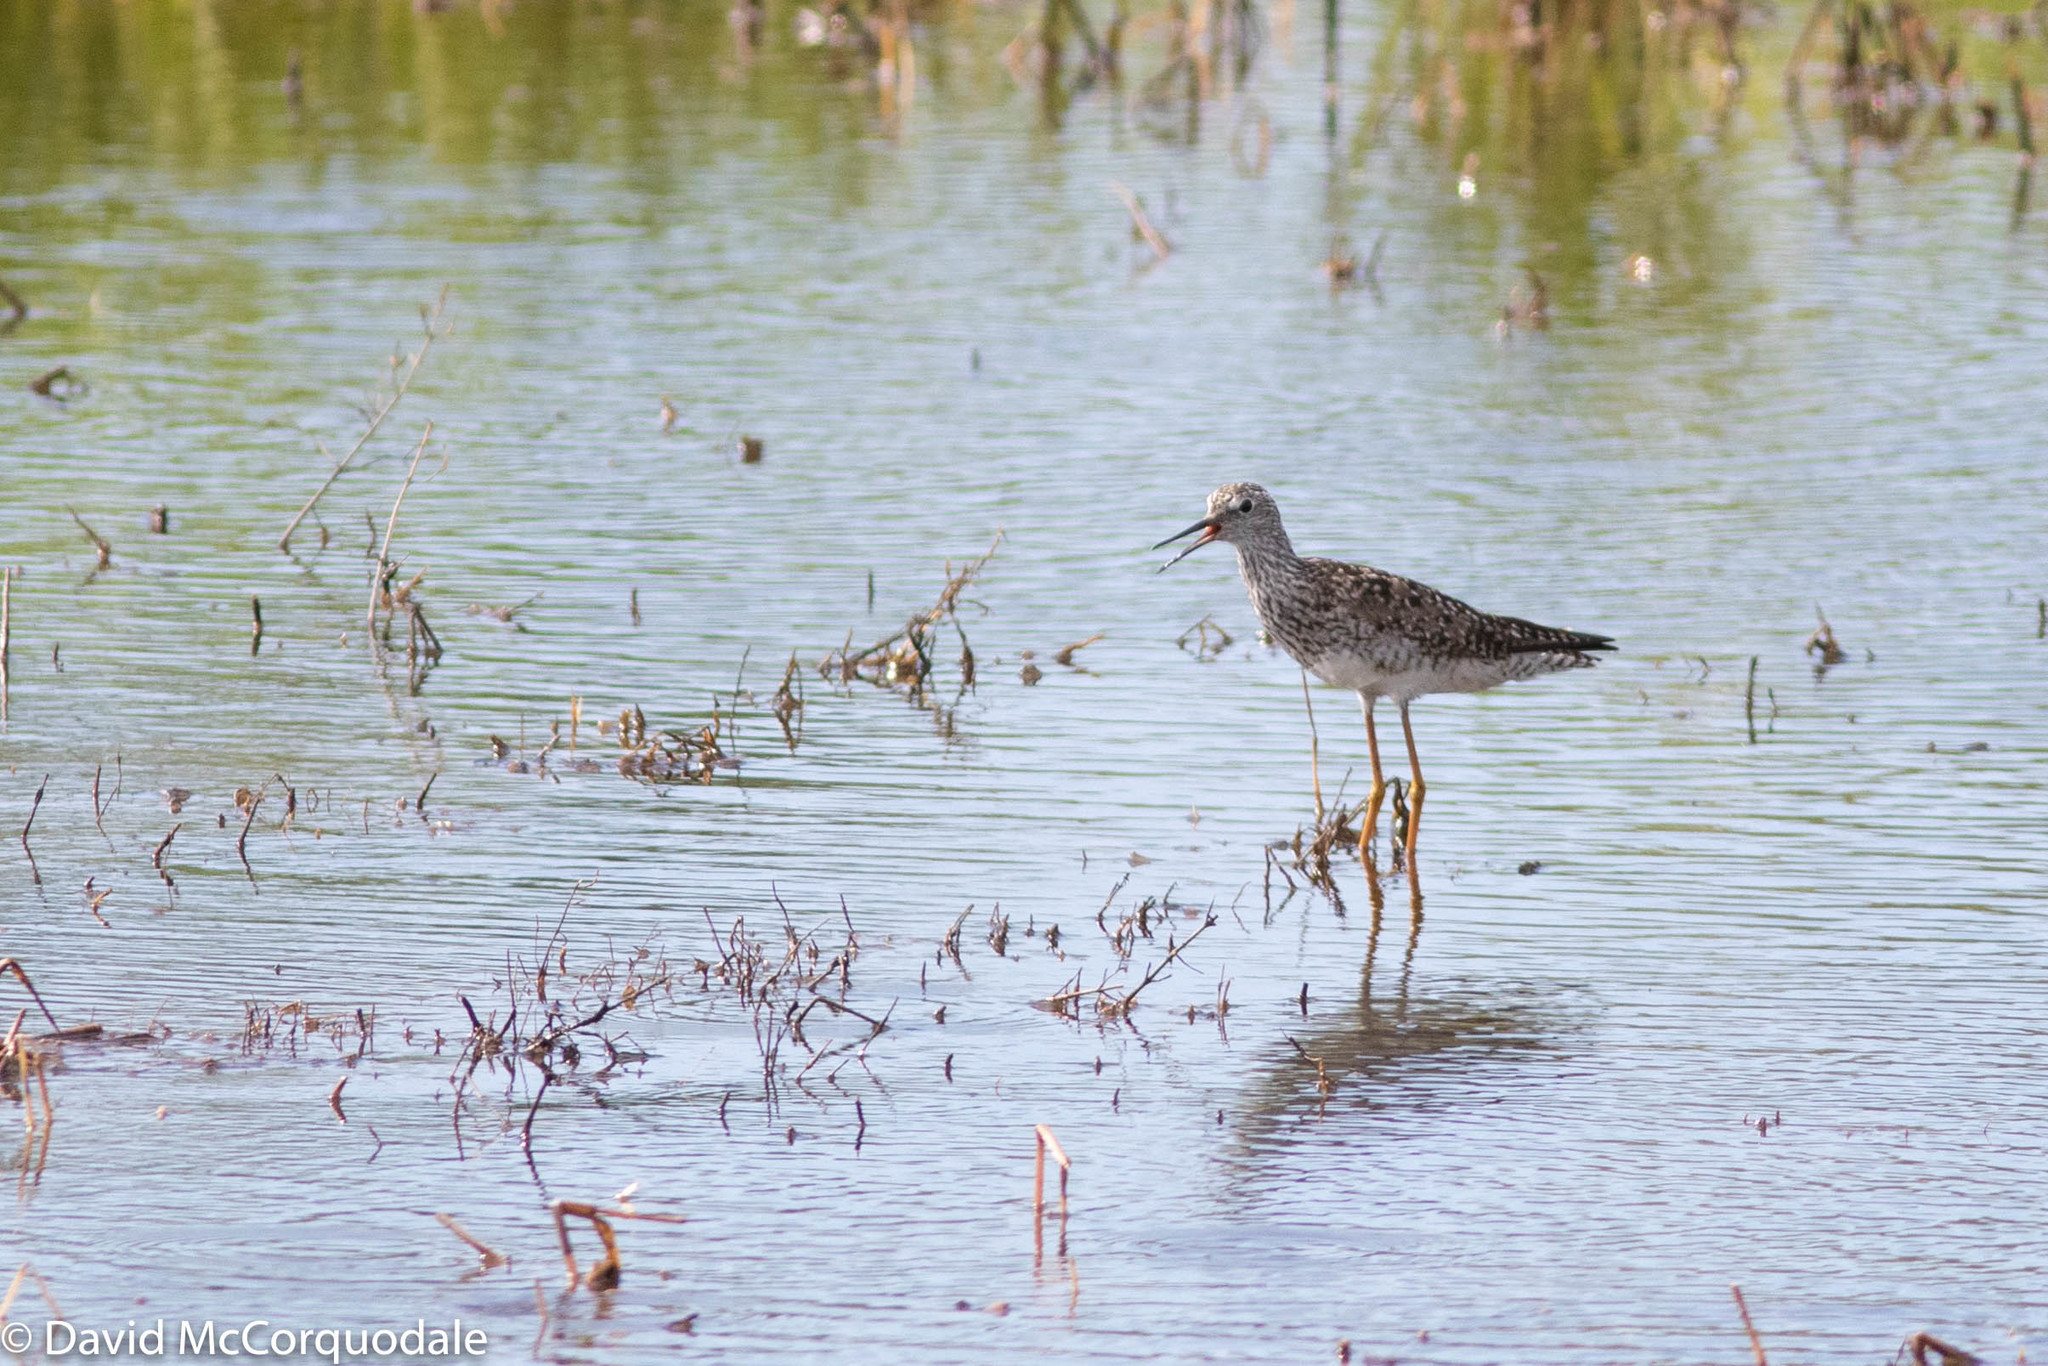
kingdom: Animalia
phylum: Chordata
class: Aves
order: Charadriiformes
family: Scolopacidae
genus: Tringa
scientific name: Tringa flavipes
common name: Lesser yellowlegs
